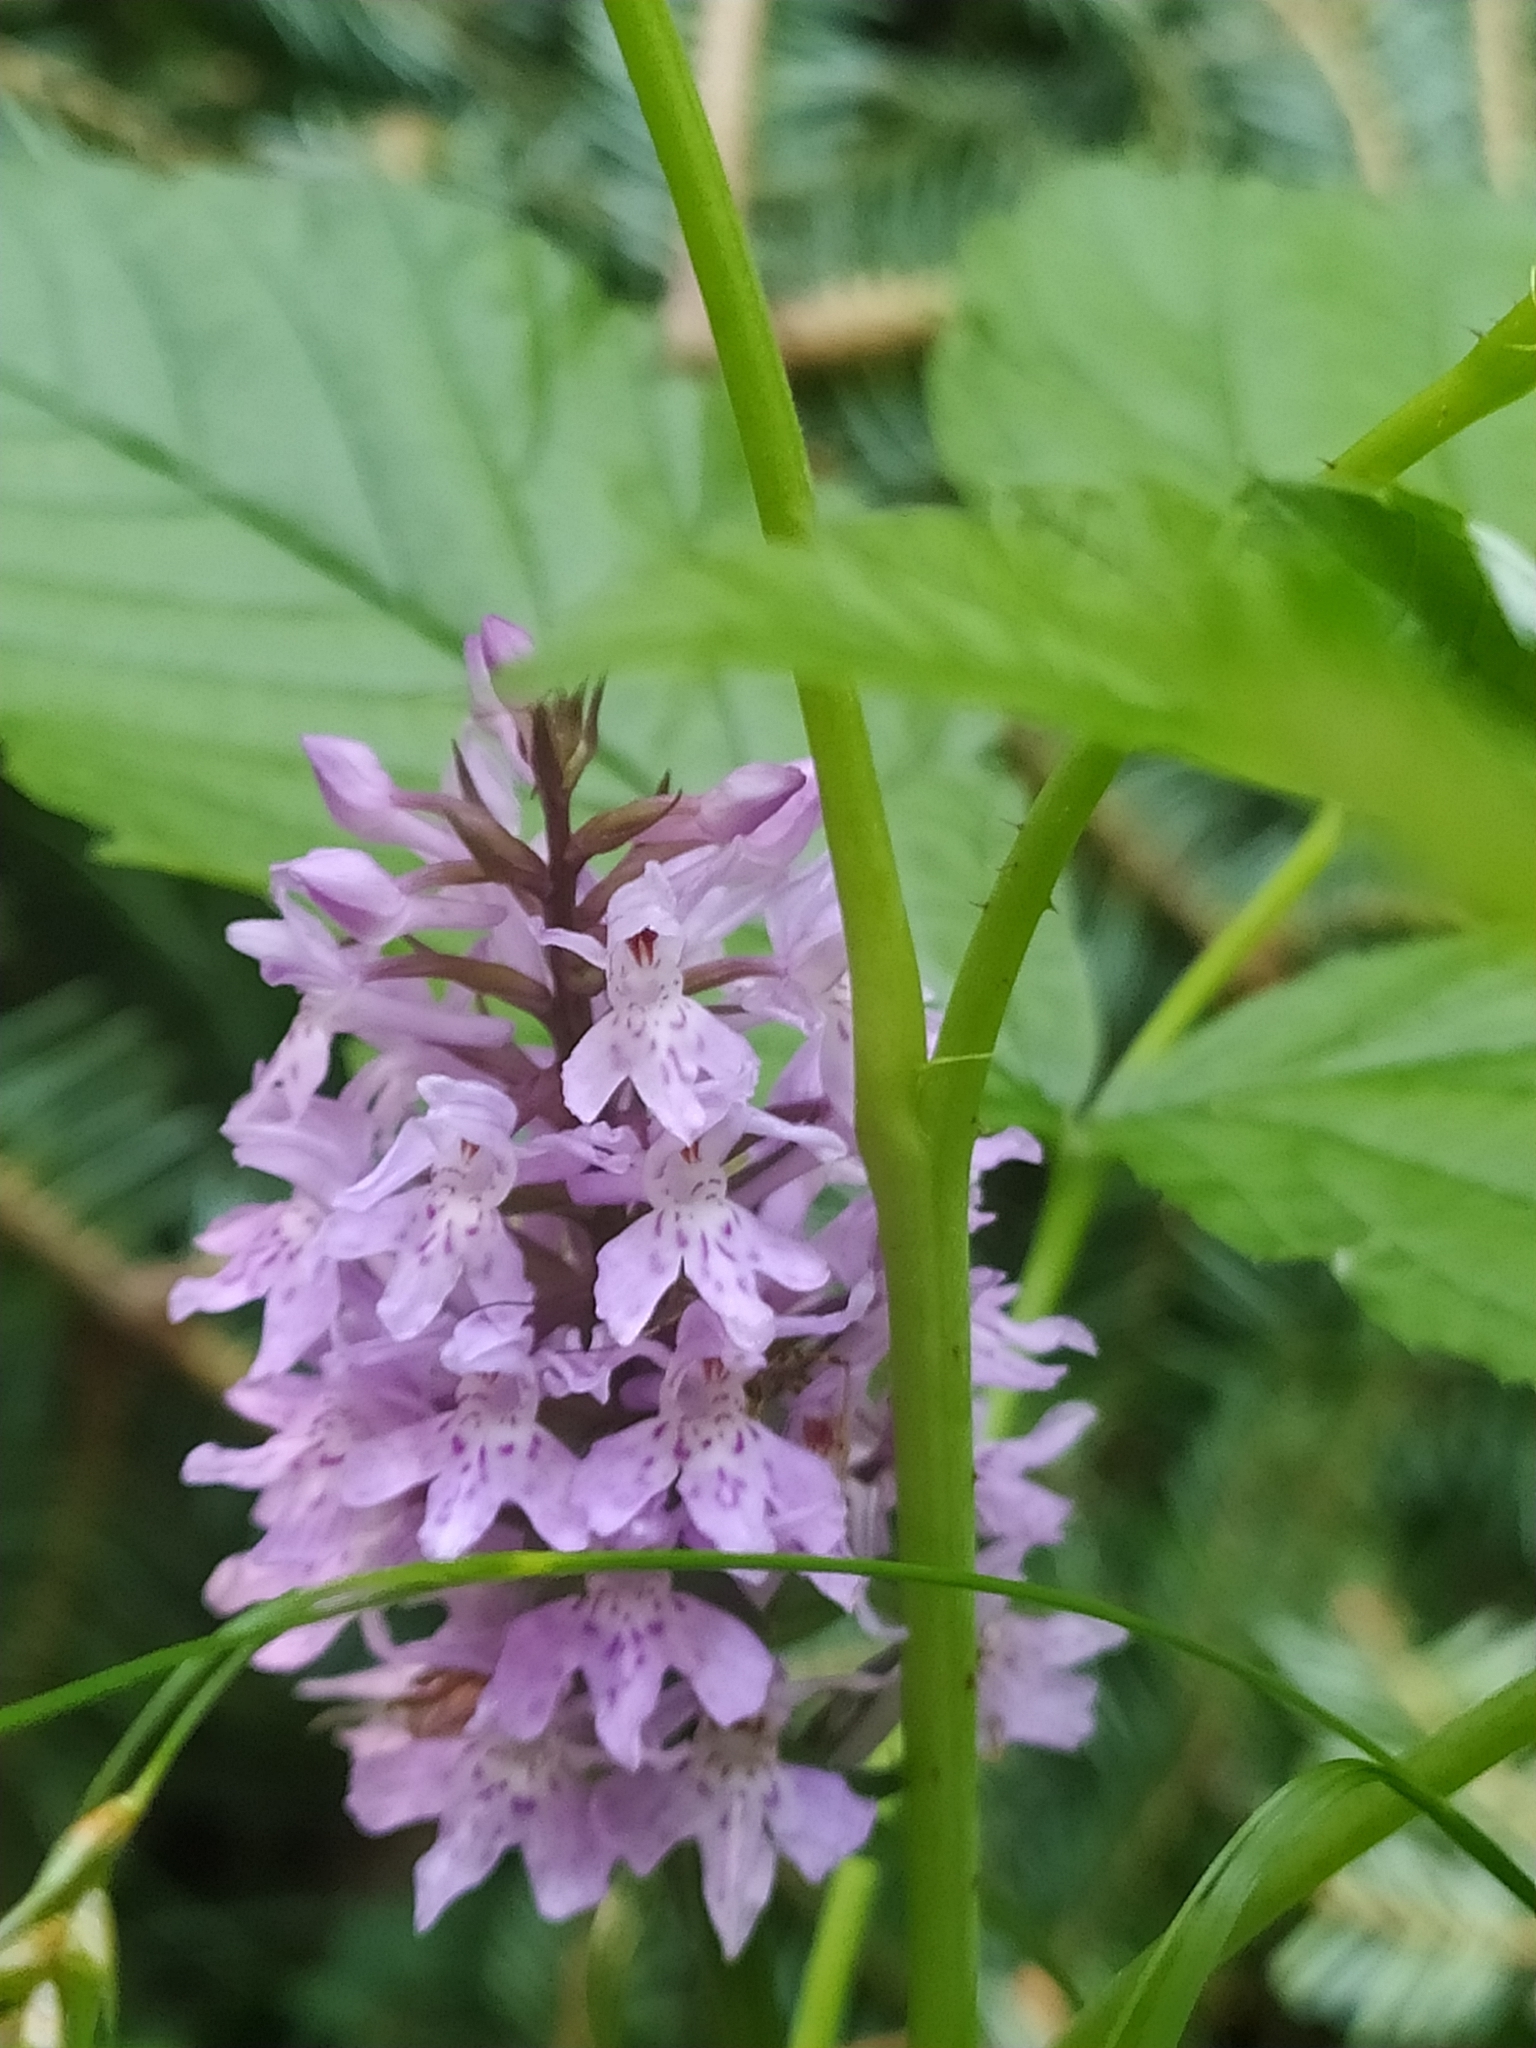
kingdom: Plantae
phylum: Tracheophyta
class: Liliopsida
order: Asparagales
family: Orchidaceae
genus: Dactylorhiza
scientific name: Dactylorhiza maculata
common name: Heath spotted-orchid
